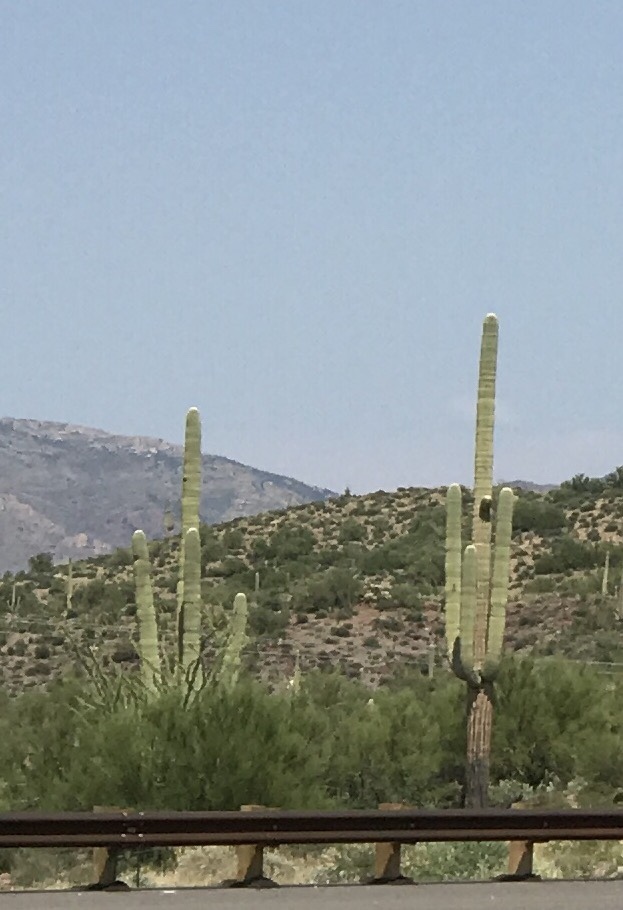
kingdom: Plantae
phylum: Tracheophyta
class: Magnoliopsida
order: Caryophyllales
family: Cactaceae
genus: Carnegiea
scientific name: Carnegiea gigantea
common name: Saguaro
